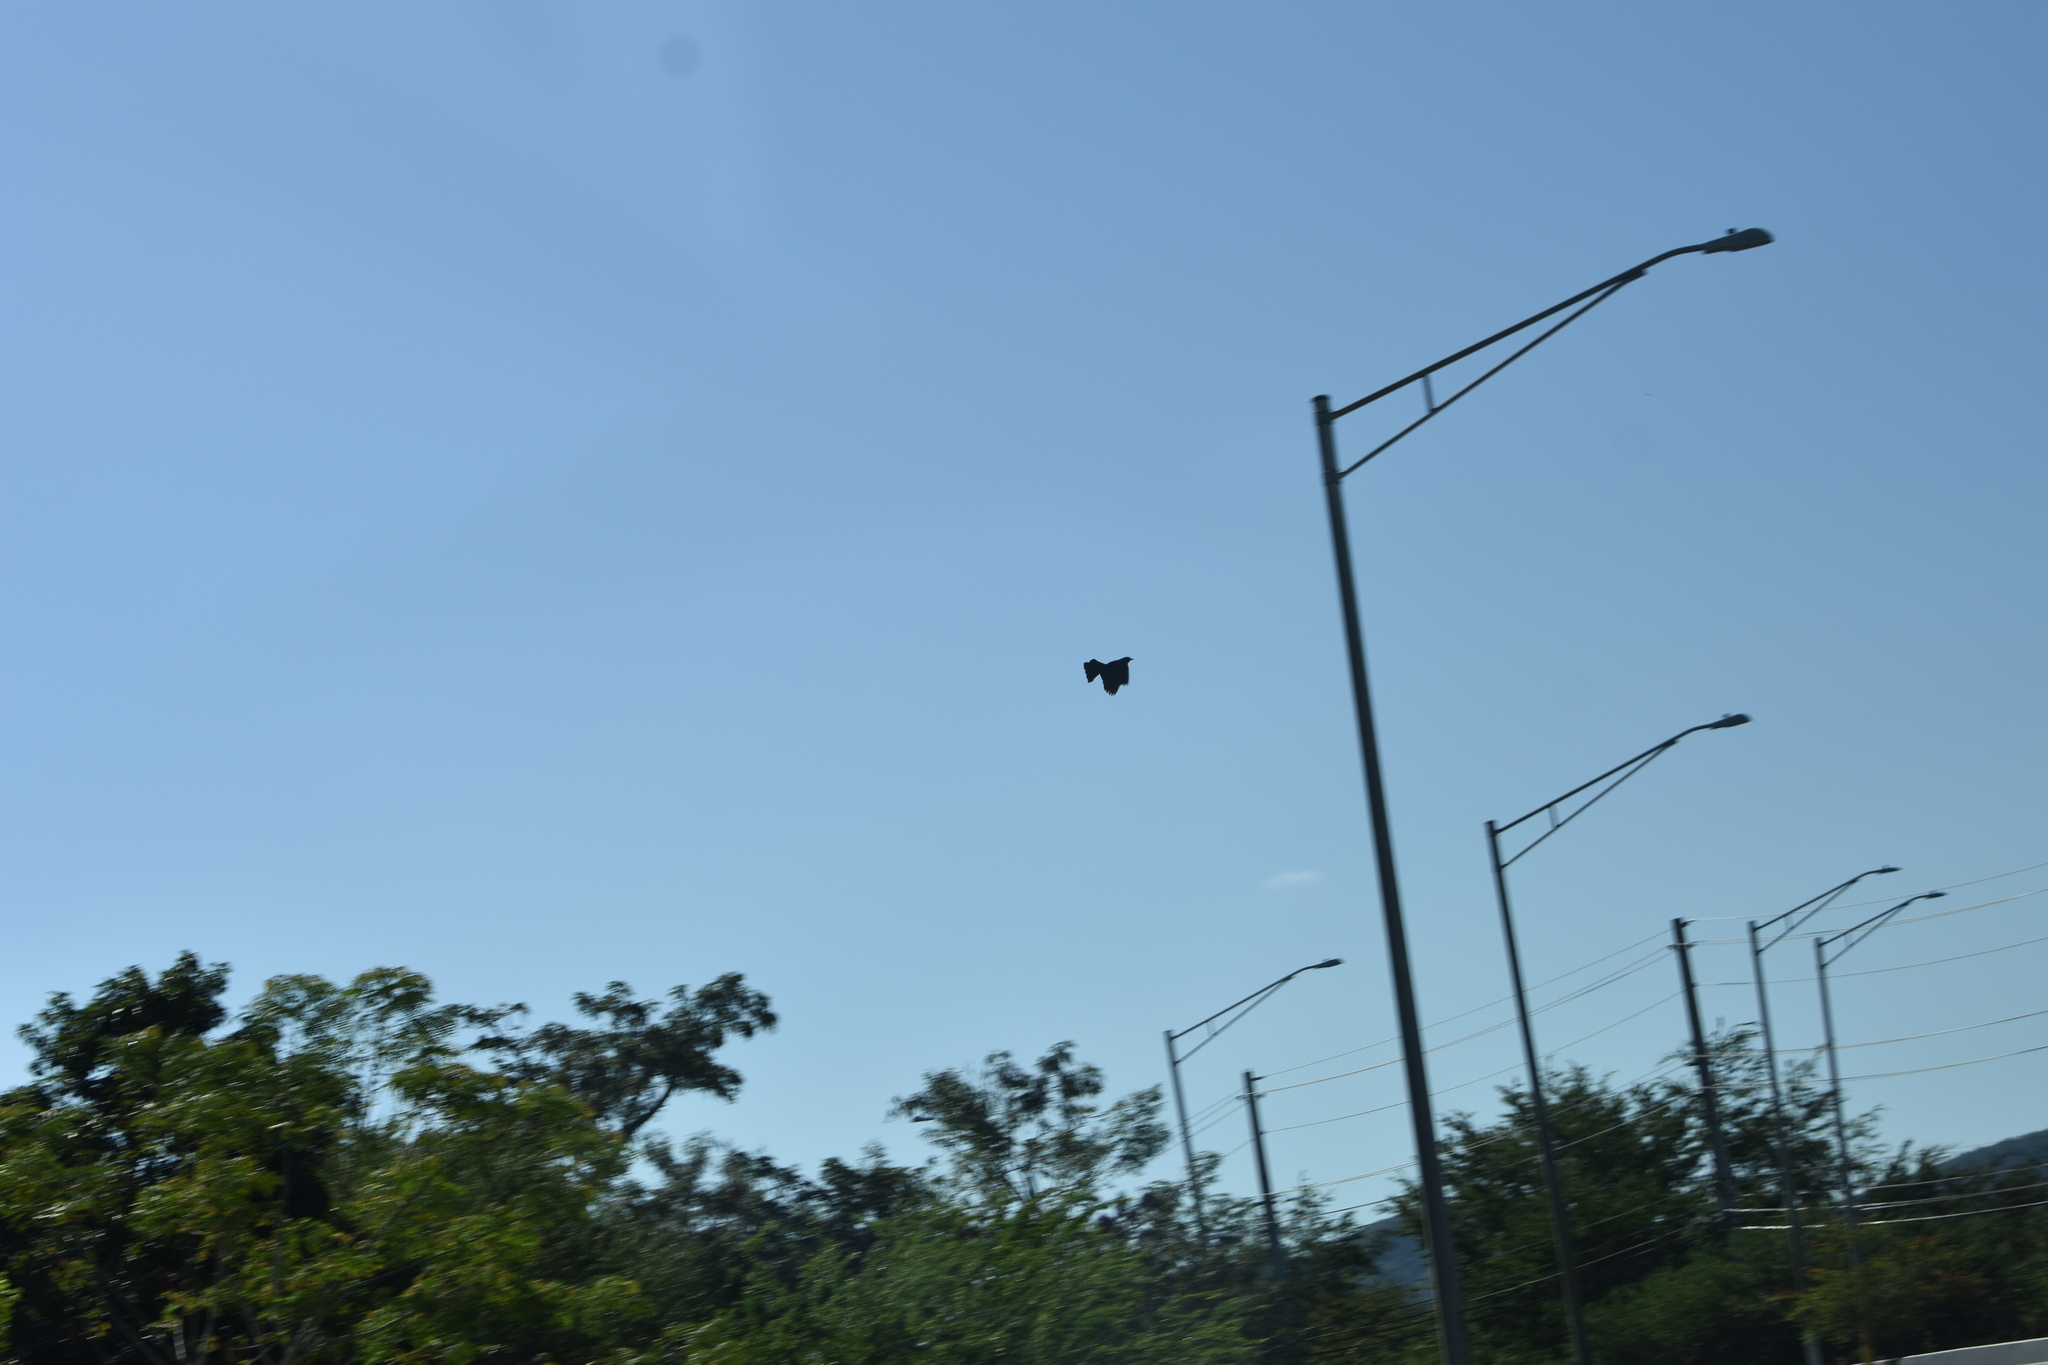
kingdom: Animalia
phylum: Chordata
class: Aves
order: Passeriformes
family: Icteridae
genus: Quiscalus
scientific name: Quiscalus niger
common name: Greater antillean grackle
